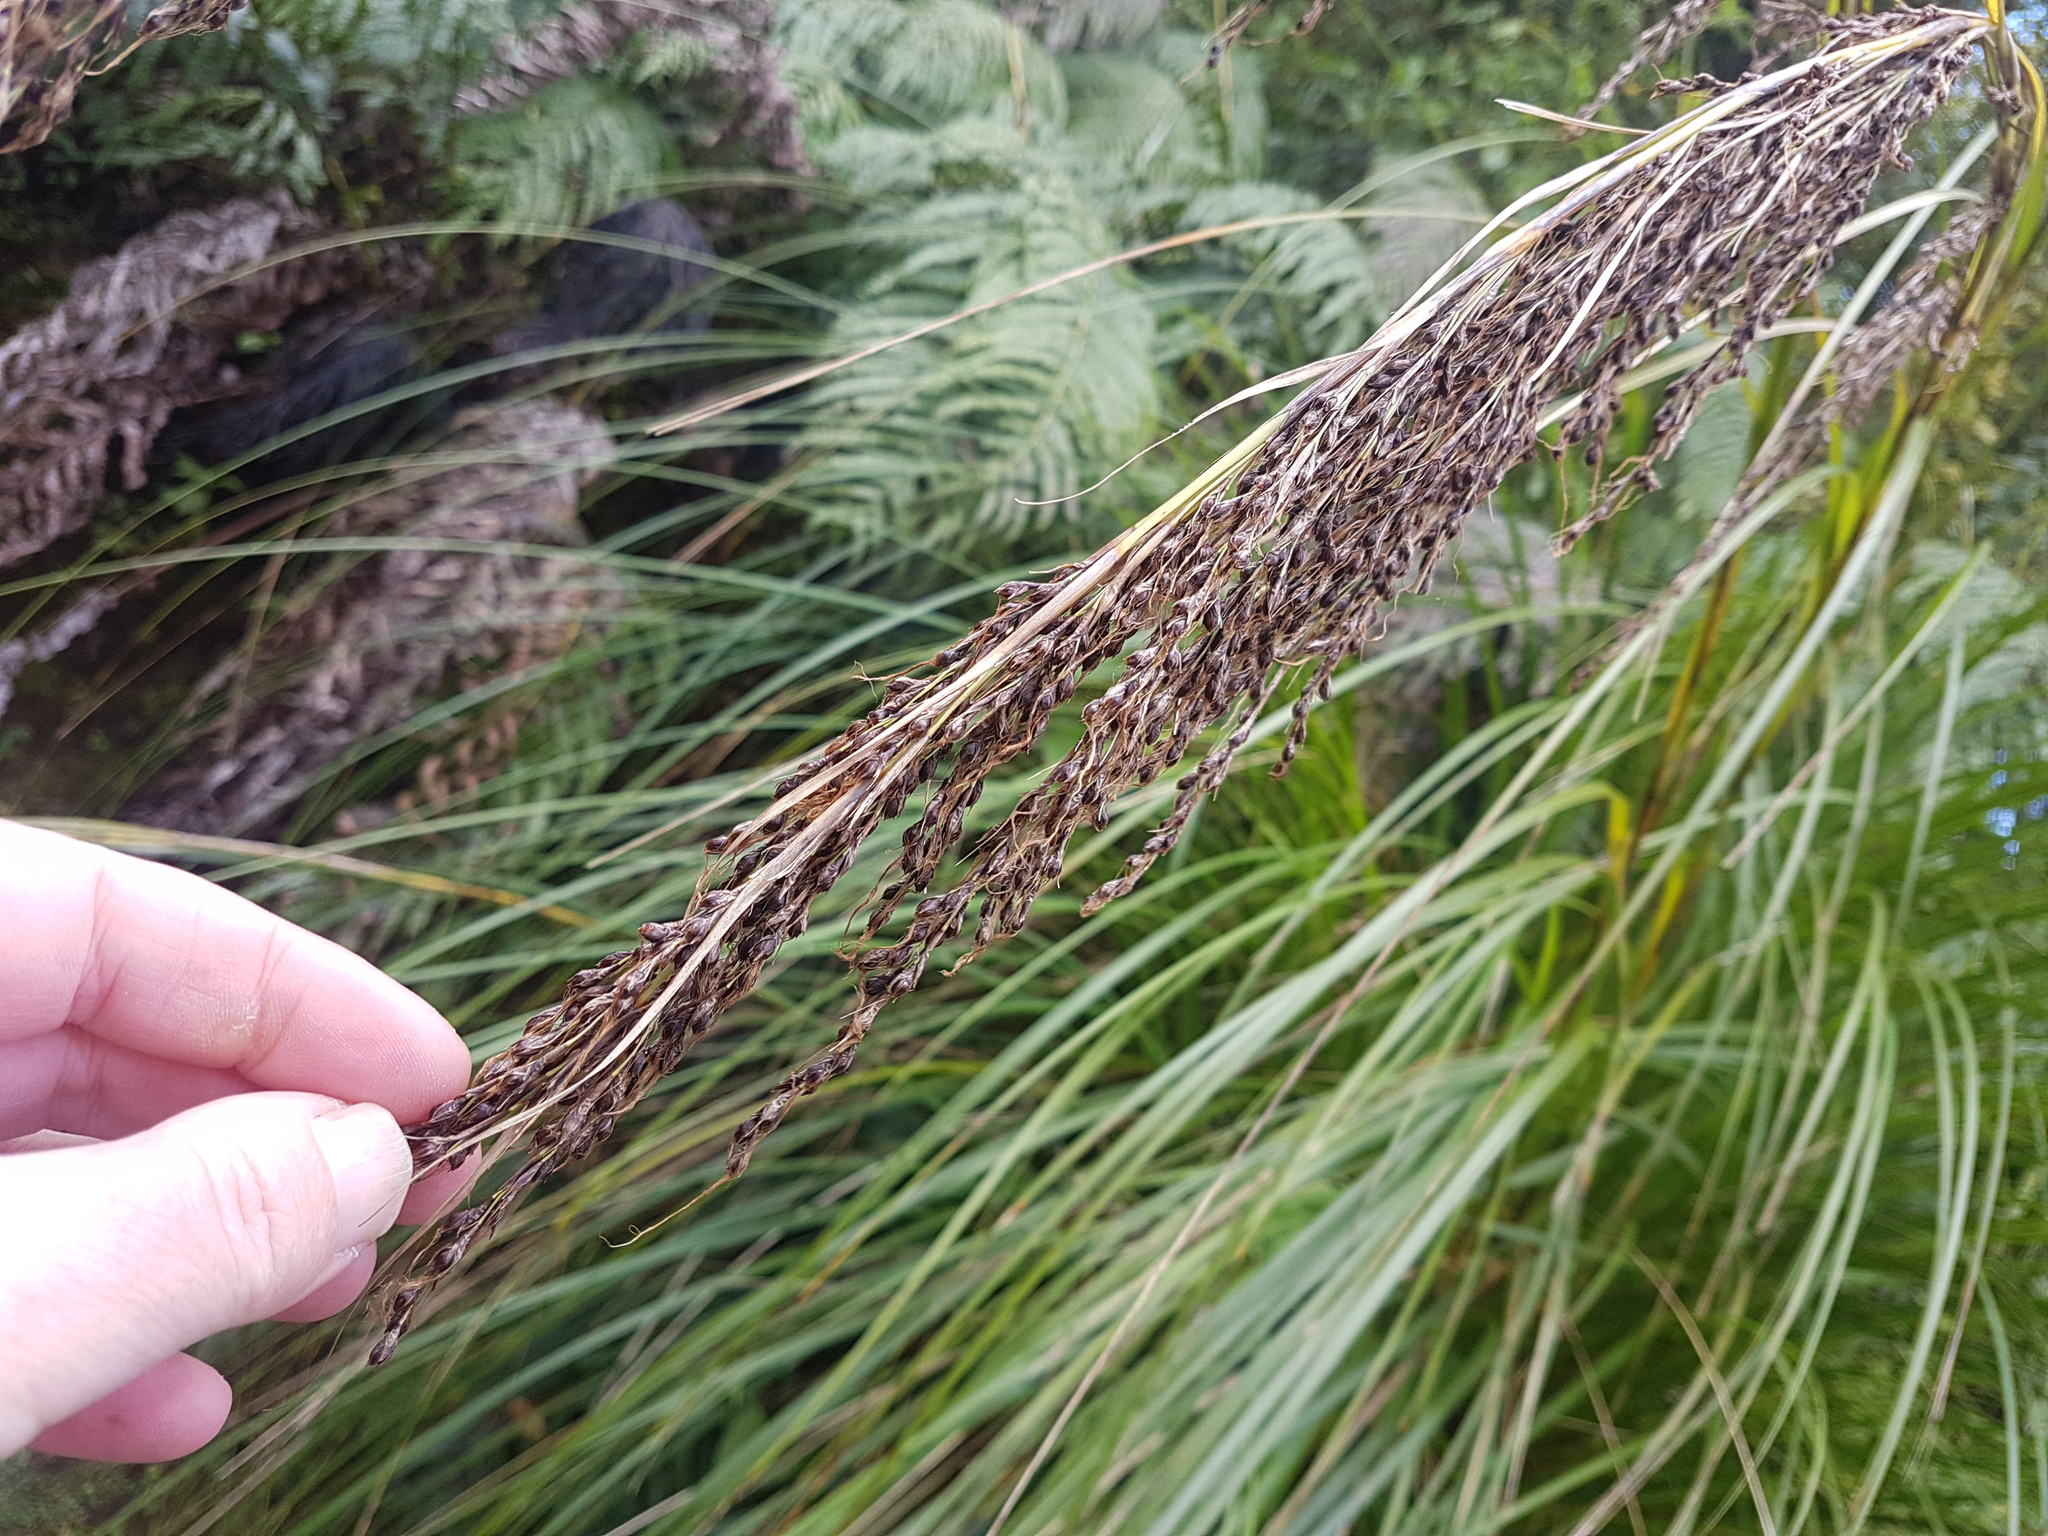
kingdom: Plantae
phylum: Tracheophyta
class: Liliopsida
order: Poales
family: Cyperaceae
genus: Gahnia
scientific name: Gahnia setifolia
